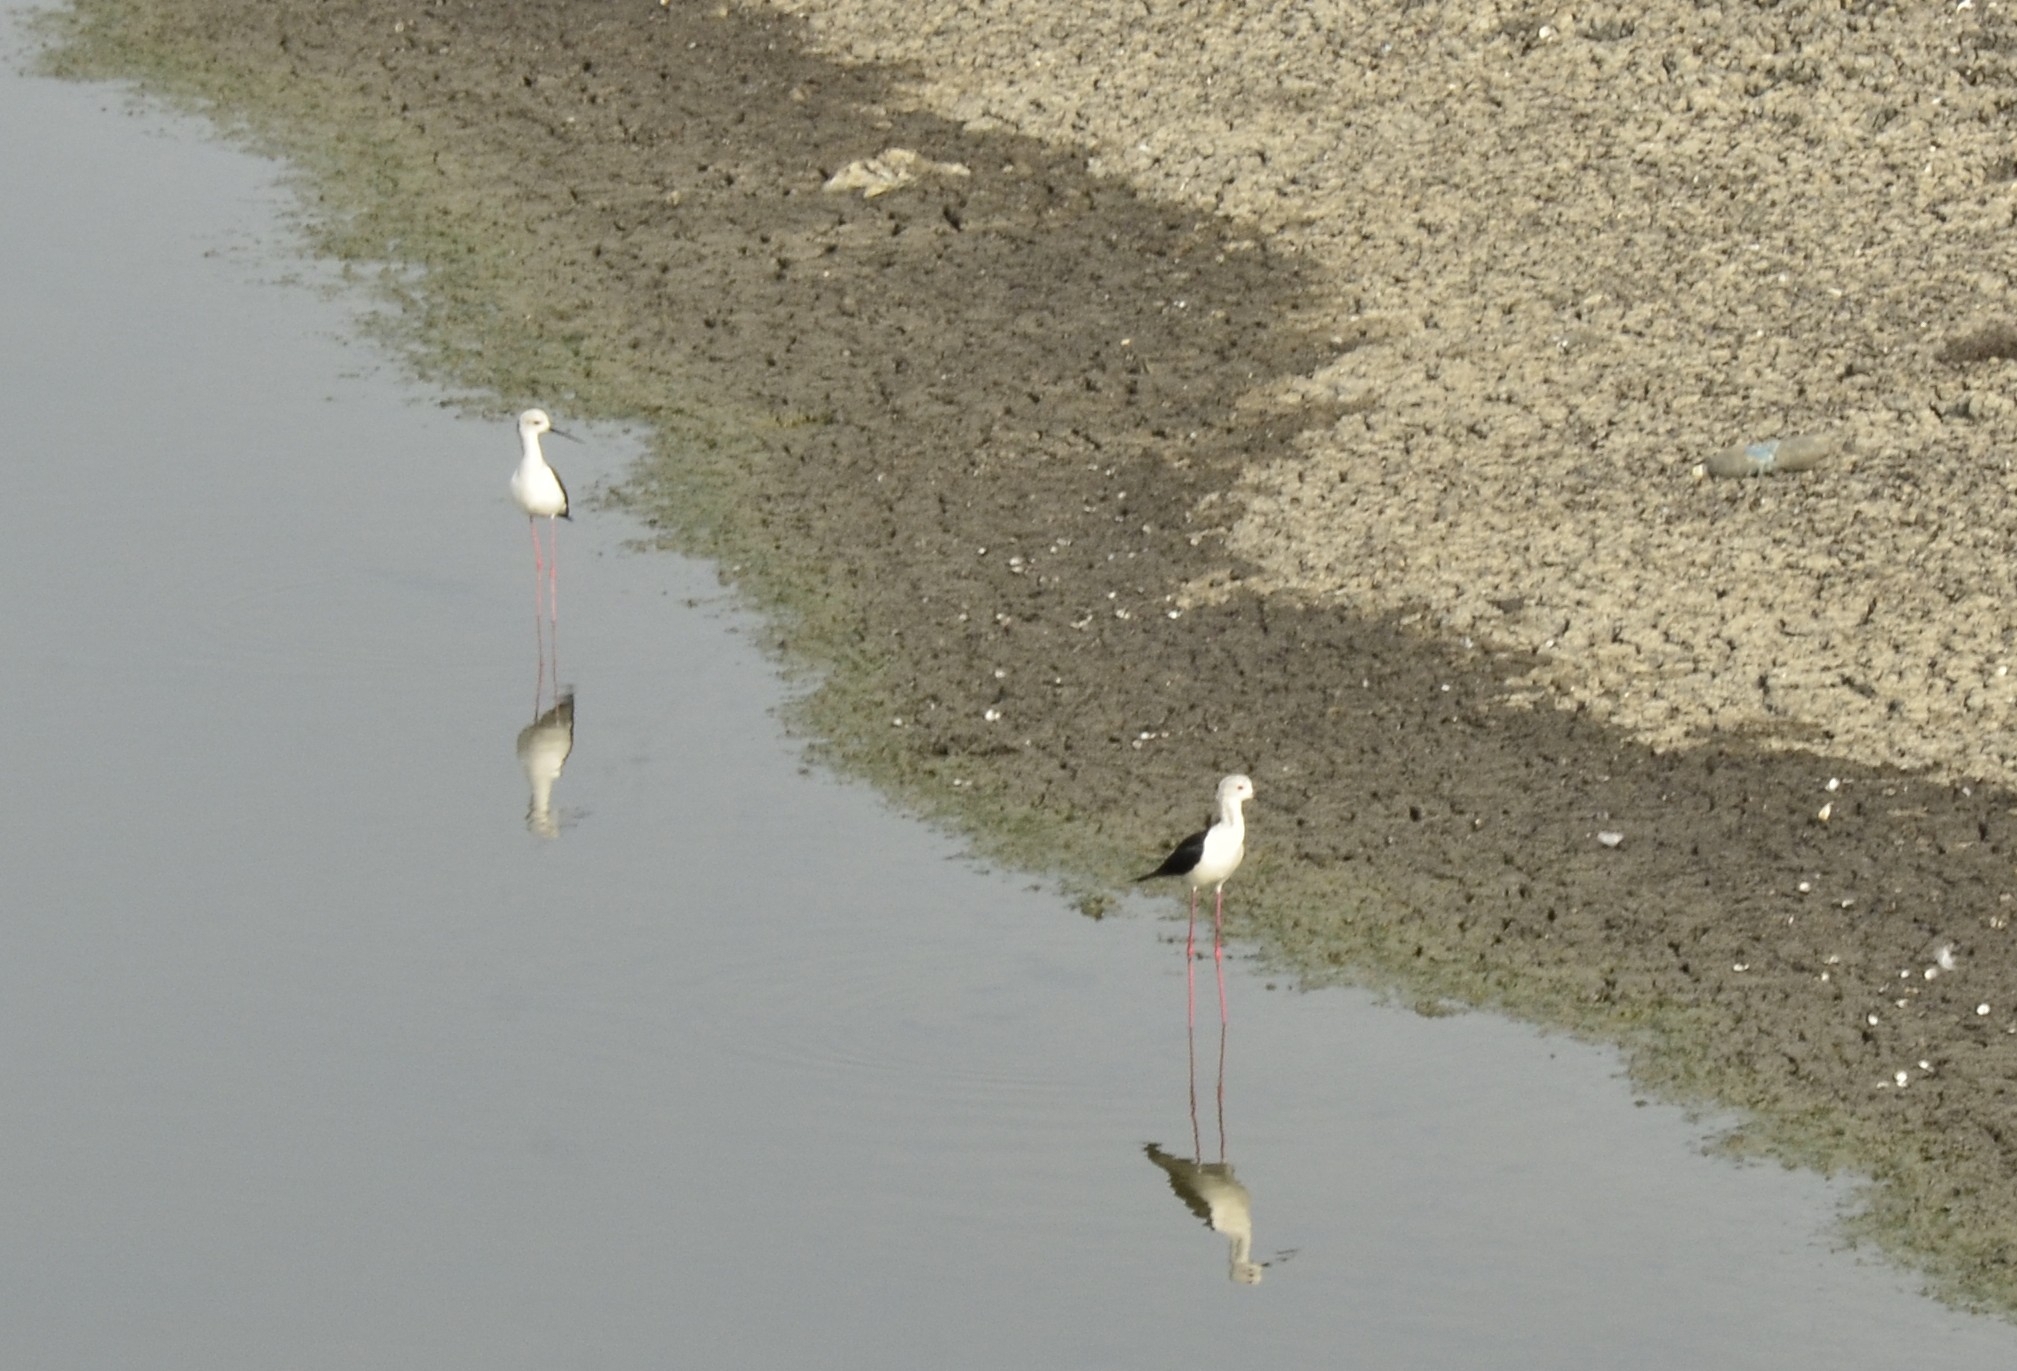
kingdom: Animalia
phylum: Chordata
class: Aves
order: Charadriiformes
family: Recurvirostridae
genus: Himantopus
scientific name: Himantopus himantopus
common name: Black-winged stilt
